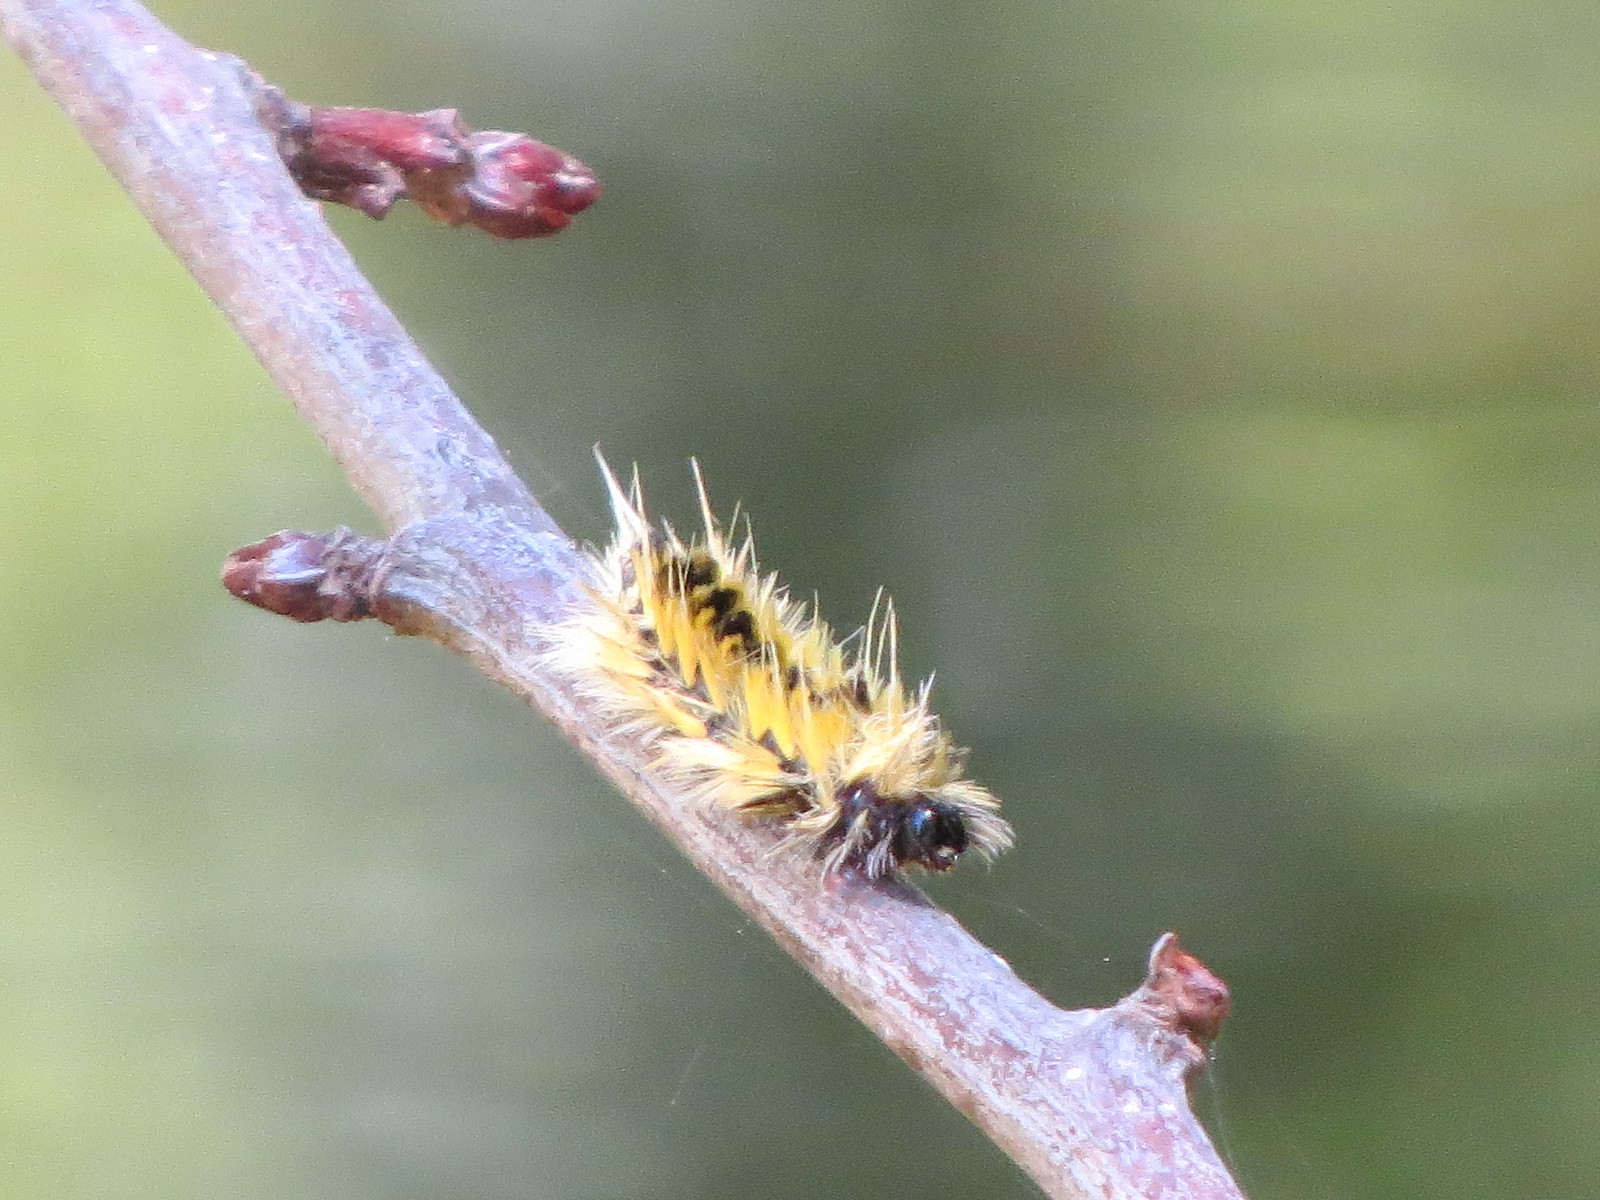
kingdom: Animalia
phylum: Arthropoda
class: Insecta
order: Lepidoptera
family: Erebidae
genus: Lophocampa
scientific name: Lophocampa maculata
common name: Spotted tussock moth
